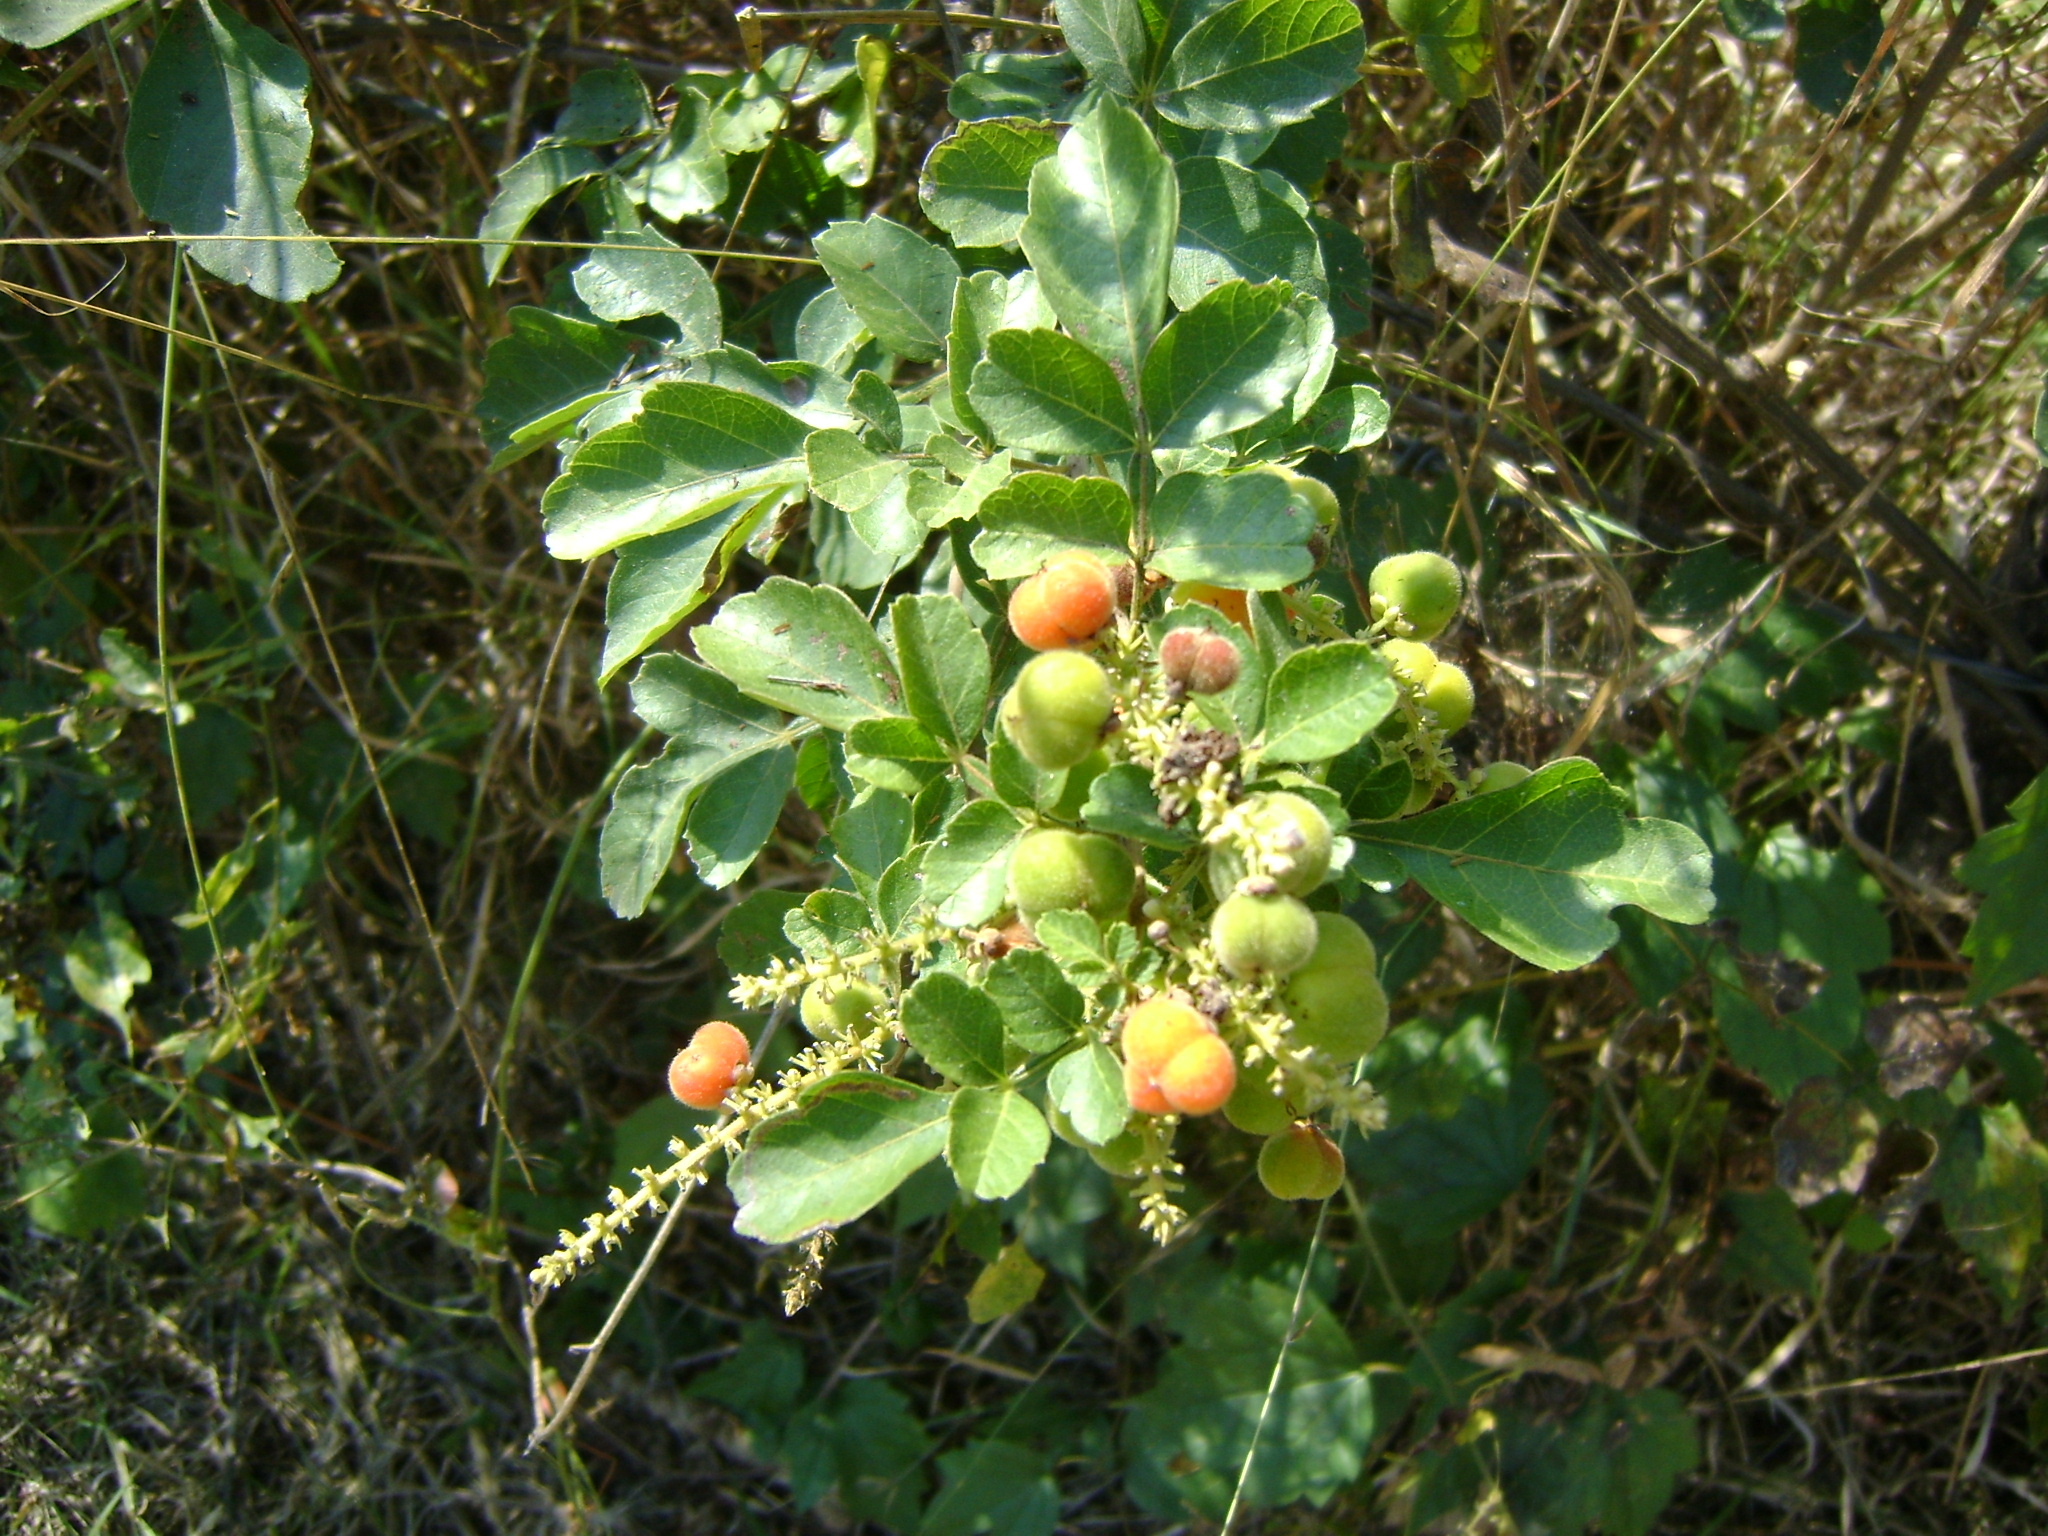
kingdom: Plantae
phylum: Tracheophyta
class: Magnoliopsida
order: Sapindales
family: Sapindaceae
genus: Paullinia
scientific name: Paullinia costata
